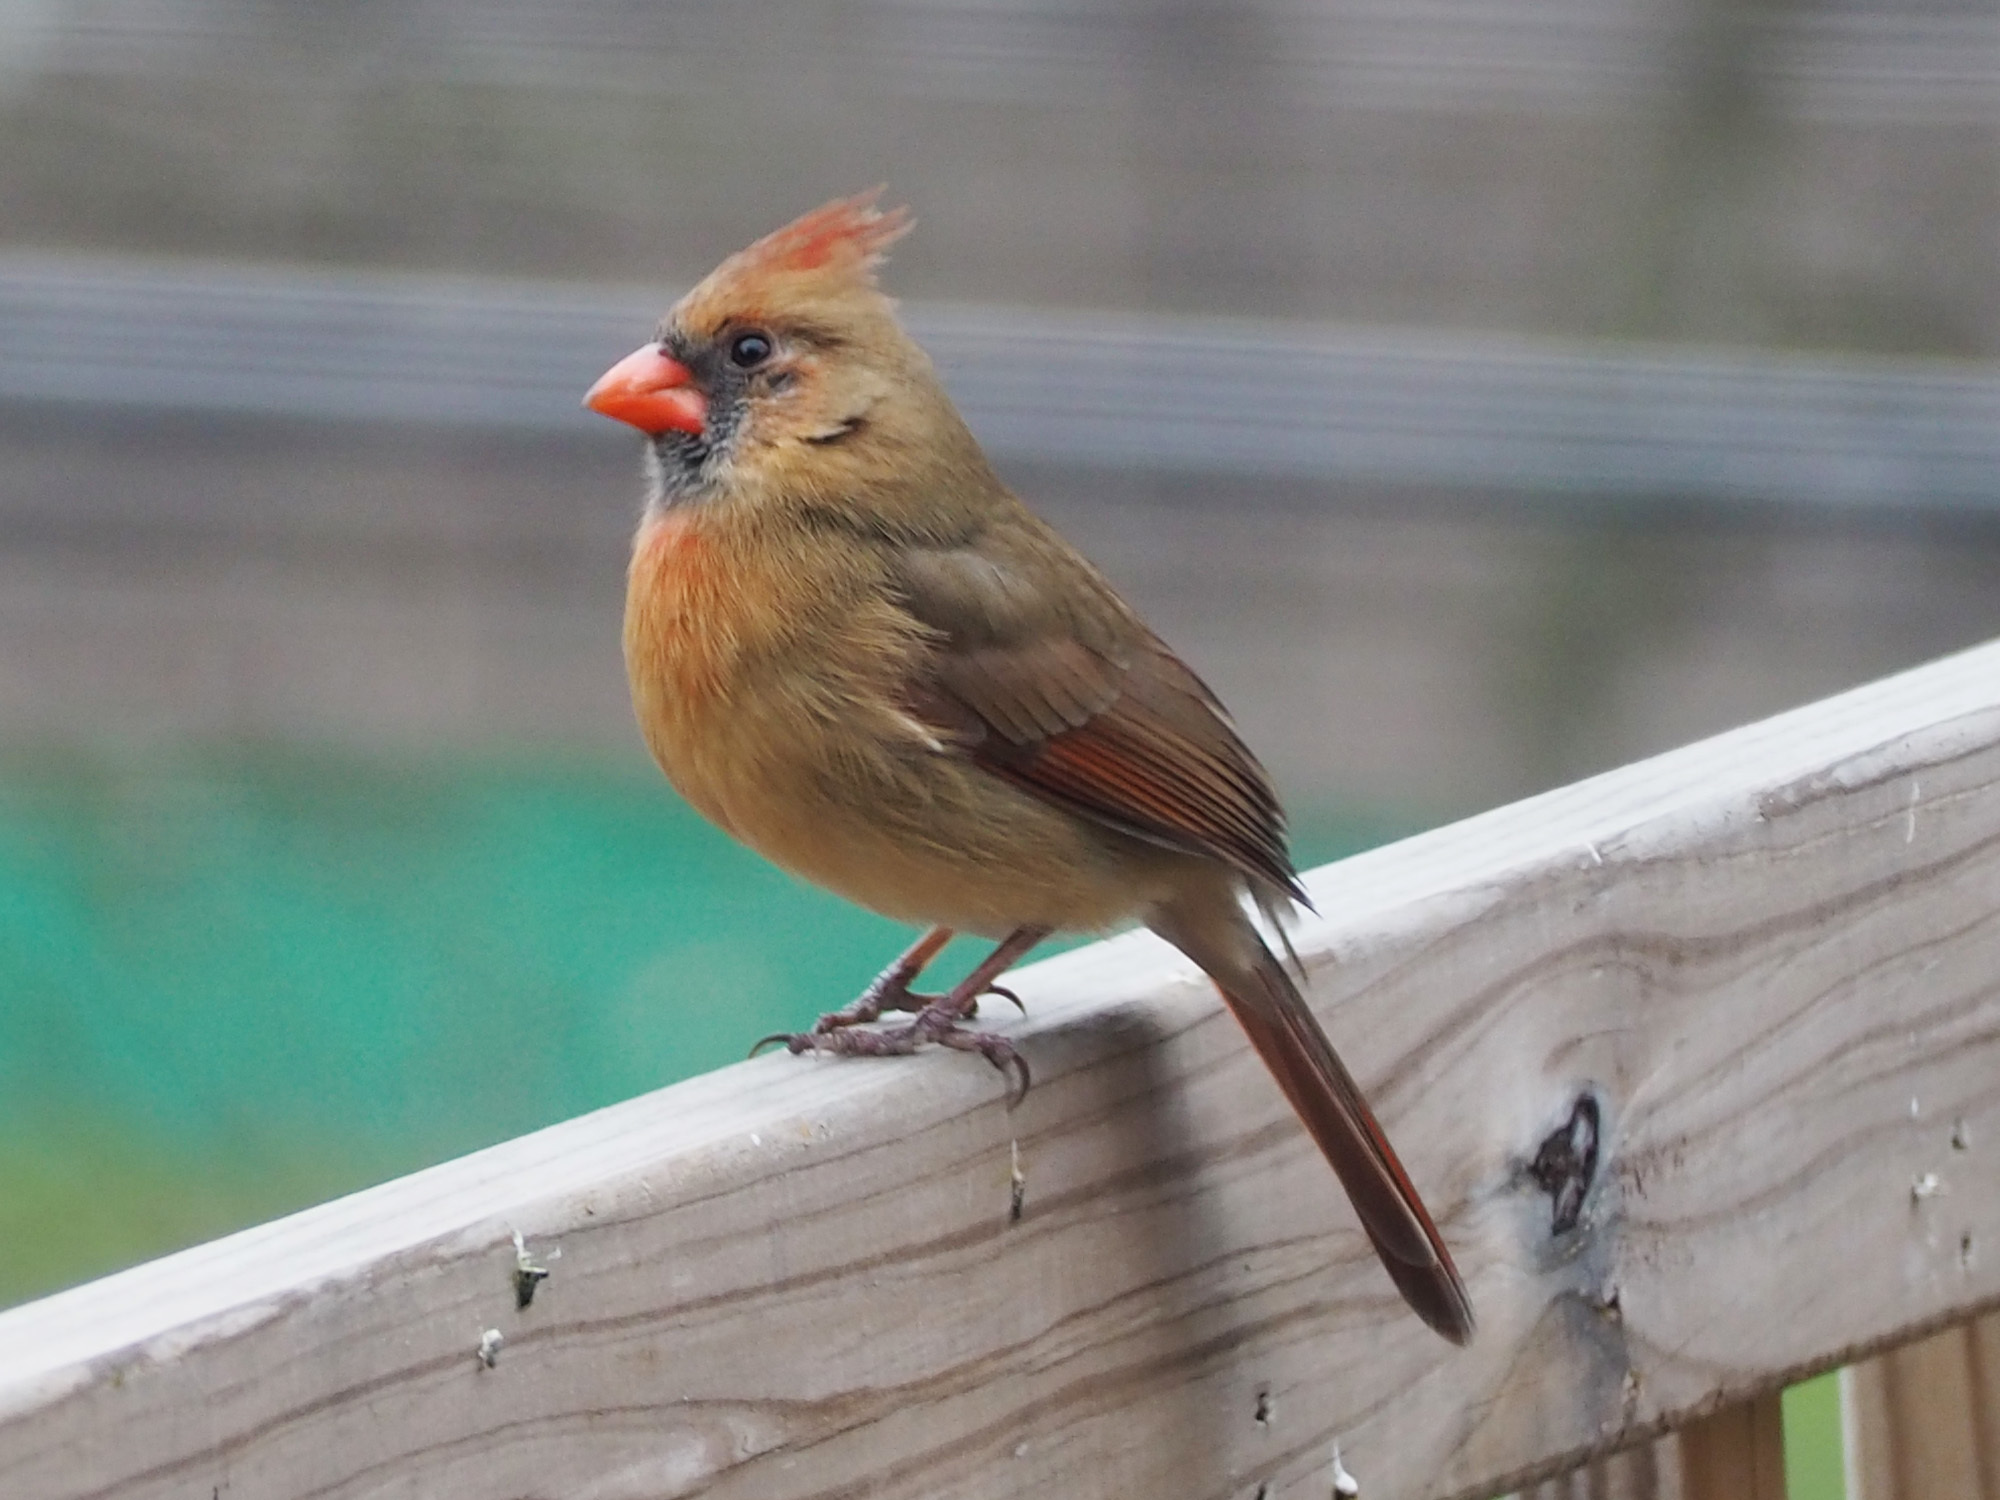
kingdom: Animalia
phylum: Chordata
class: Aves
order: Passeriformes
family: Cardinalidae
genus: Cardinalis
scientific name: Cardinalis cardinalis
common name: Northern cardinal
